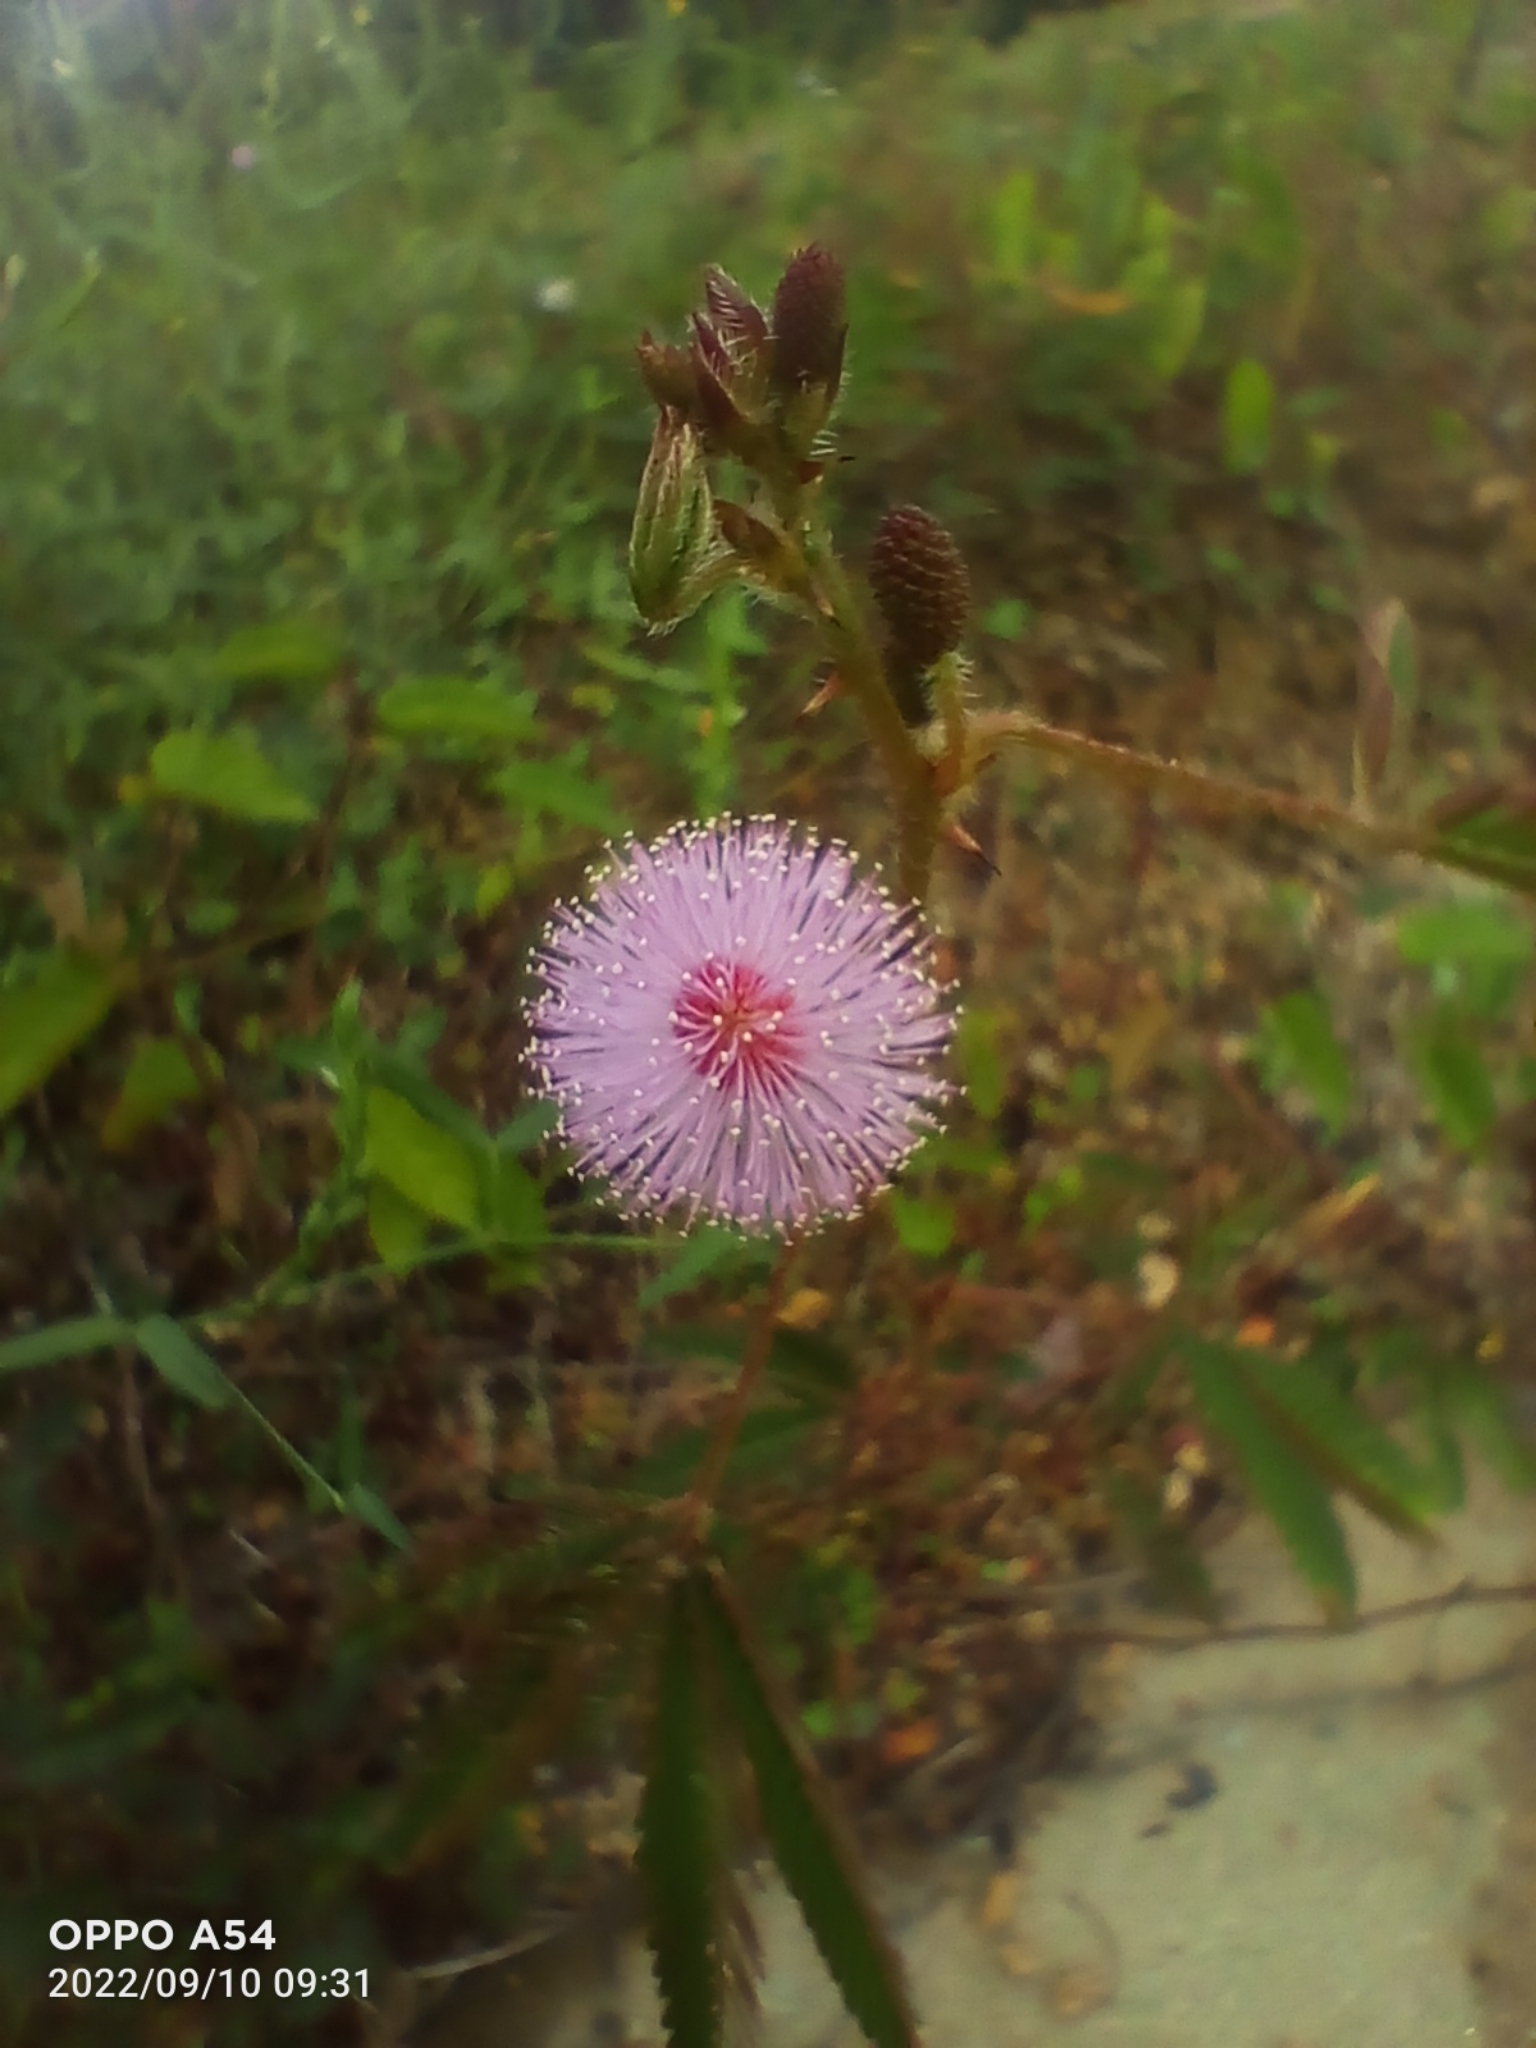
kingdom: Plantae
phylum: Tracheophyta
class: Magnoliopsida
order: Fabales
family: Fabaceae
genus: Mimosa
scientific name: Mimosa pudica
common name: Sensitive plant
